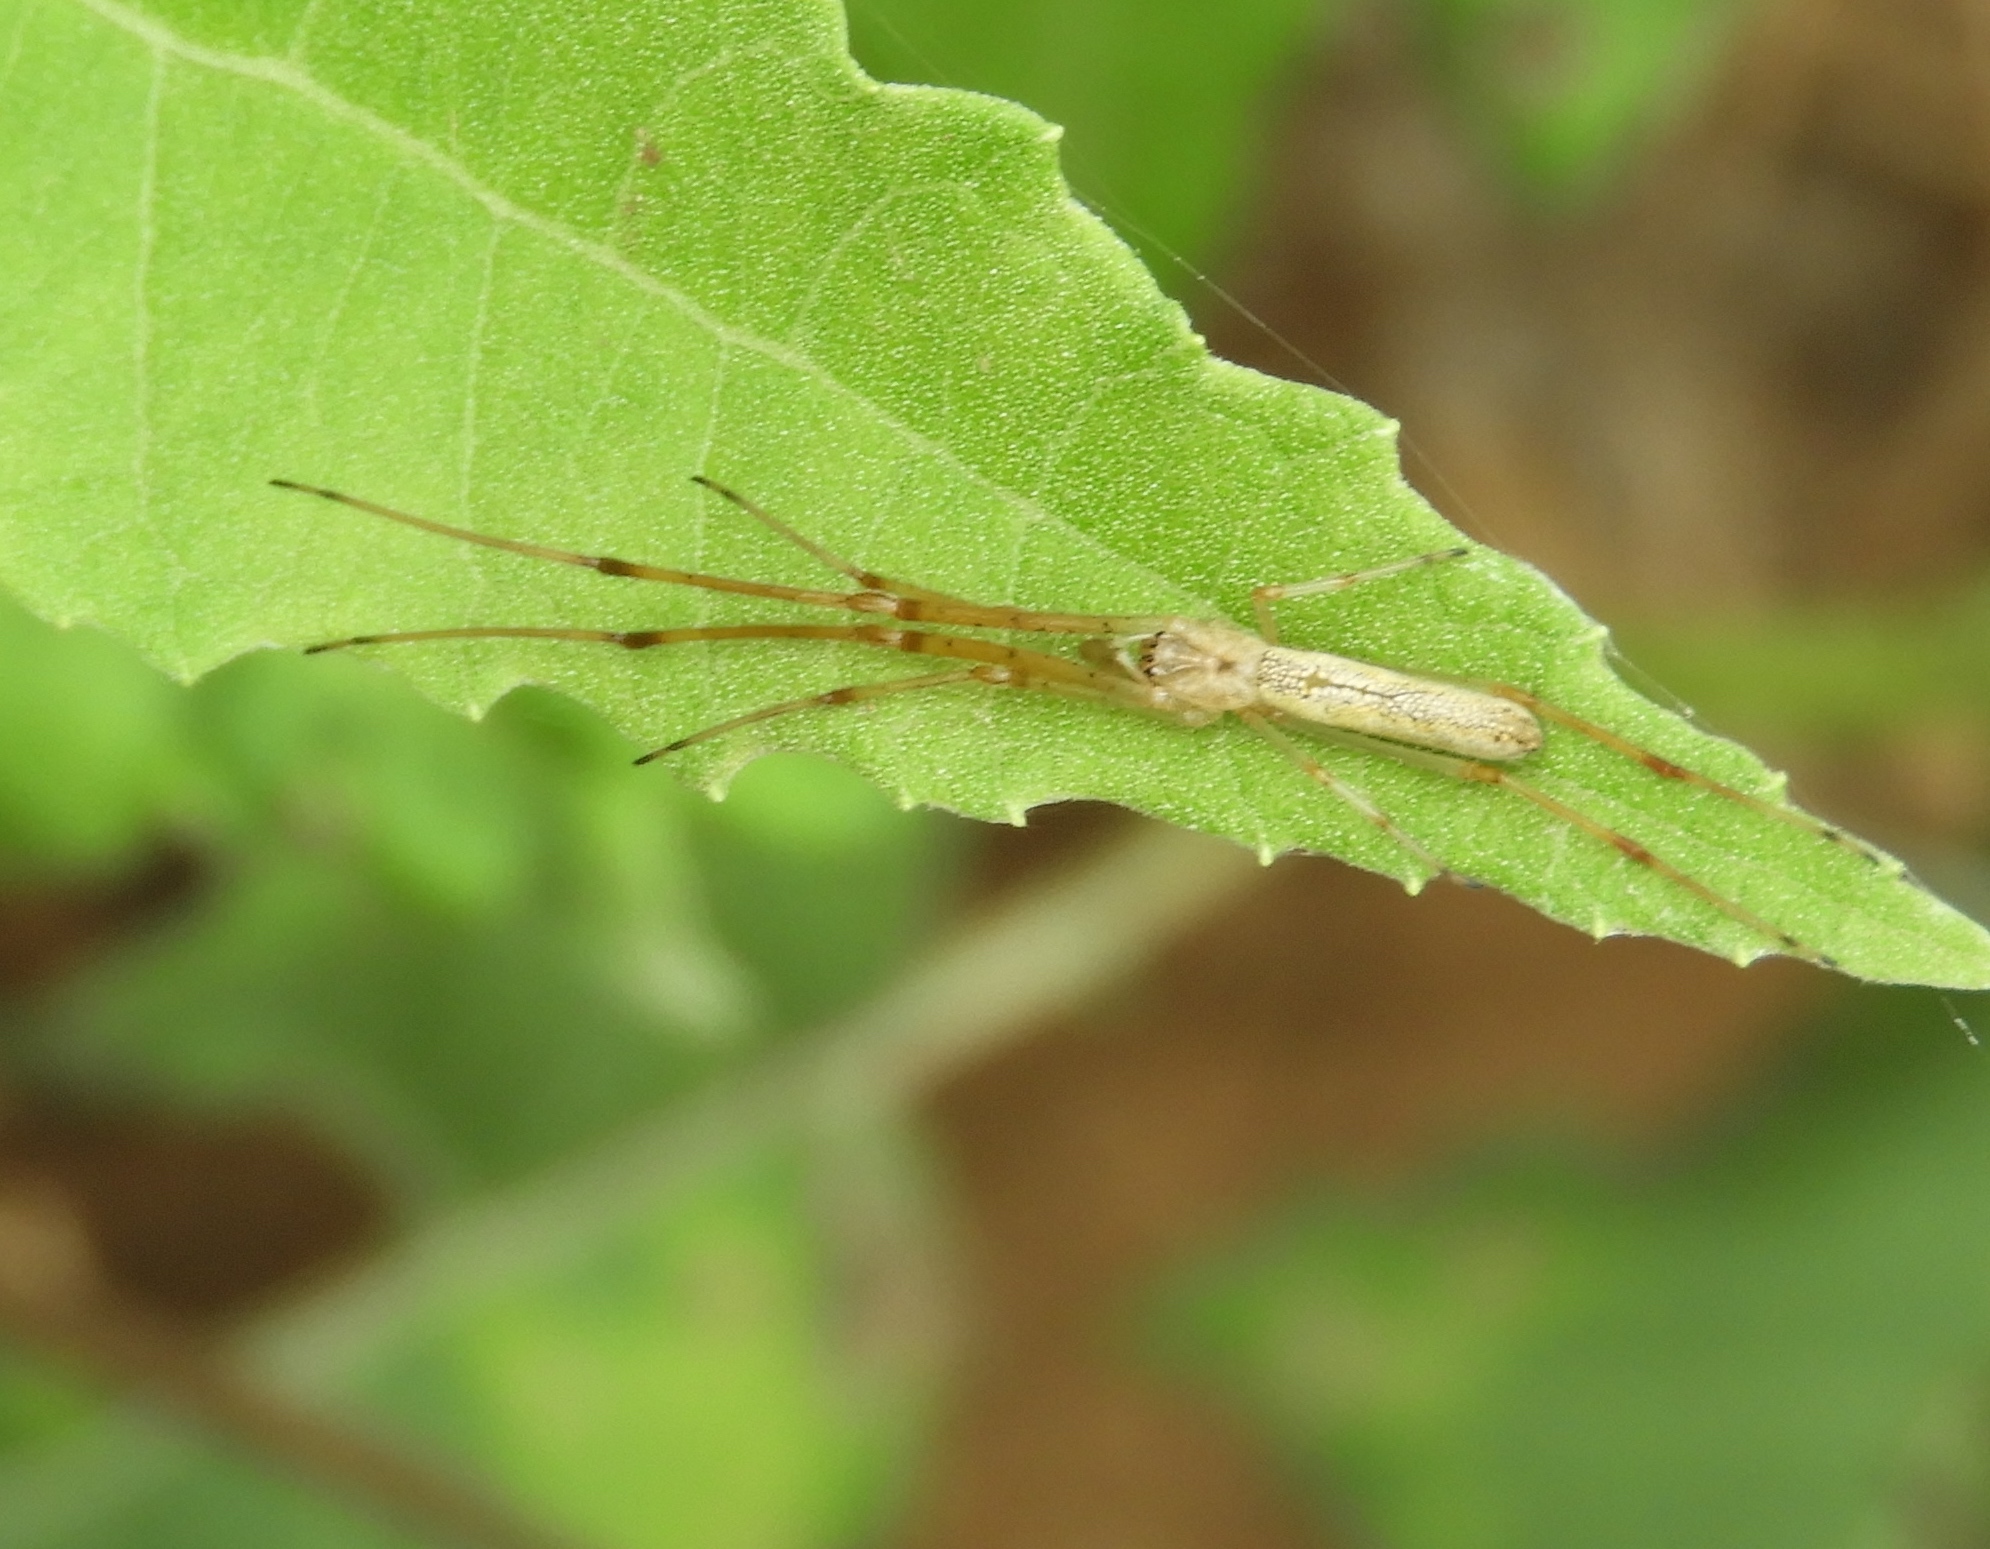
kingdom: Animalia
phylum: Arthropoda
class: Arachnida
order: Araneae
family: Tetragnathidae
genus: Tetragnatha
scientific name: Tetragnatha
